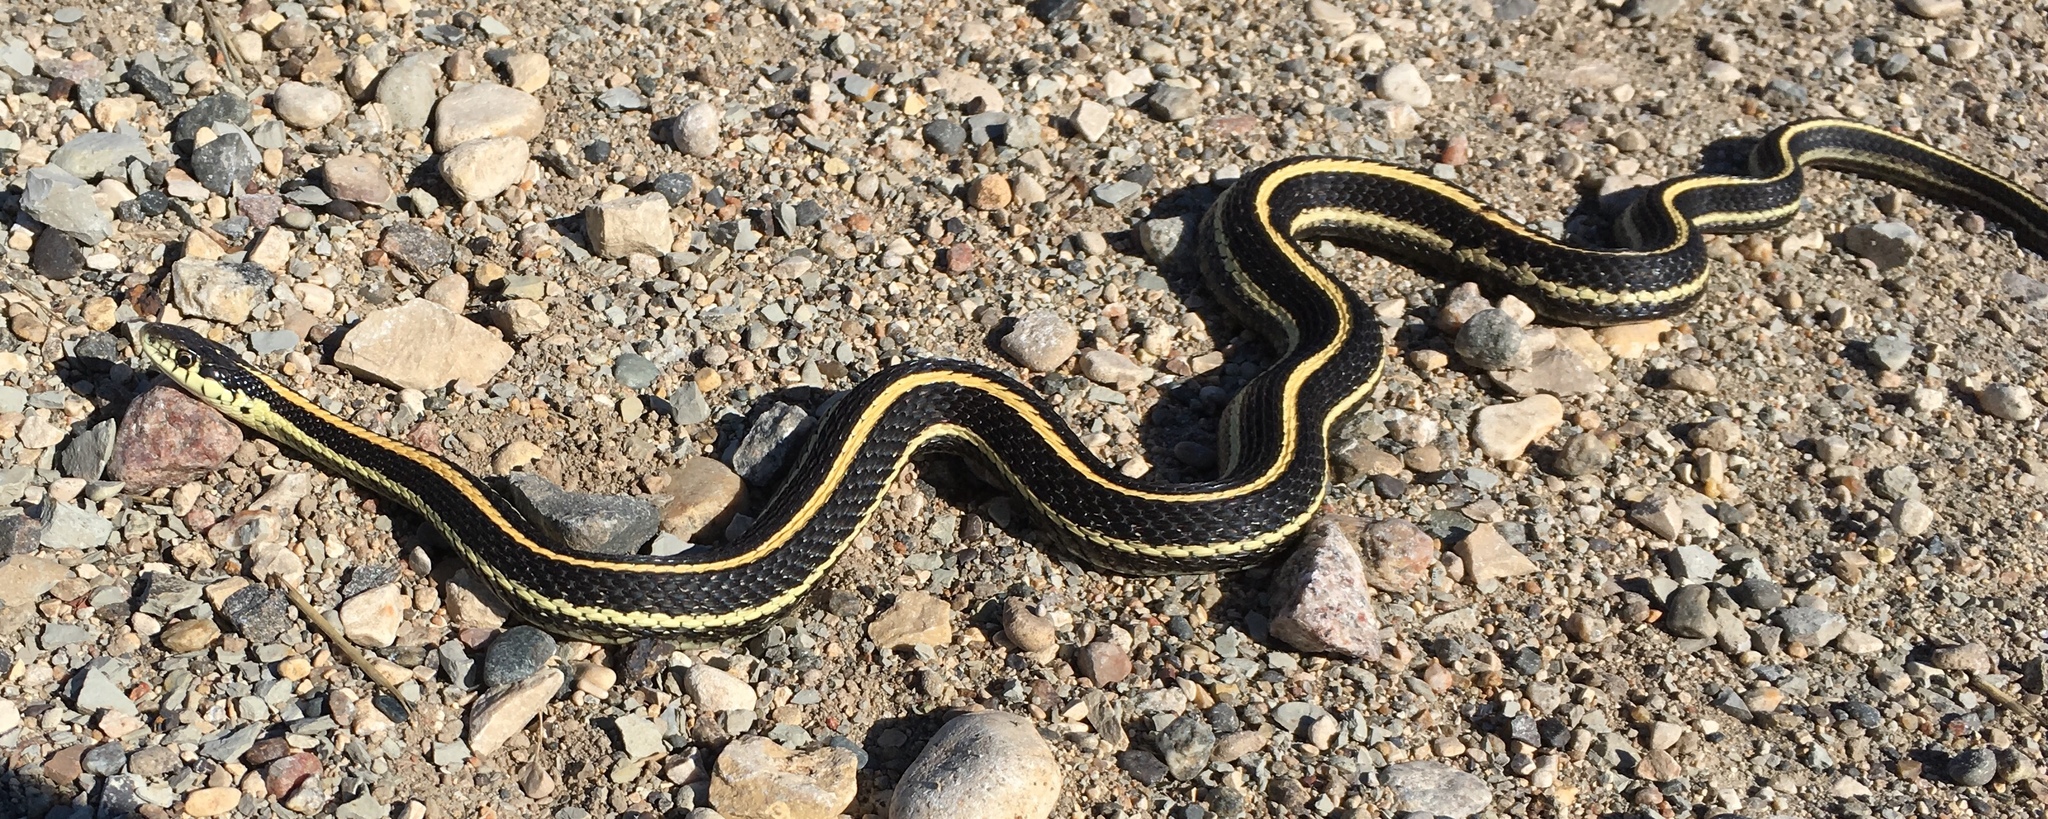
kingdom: Animalia
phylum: Chordata
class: Squamata
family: Colubridae
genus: Thamnophis
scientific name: Thamnophis radix
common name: Plains garter snake
